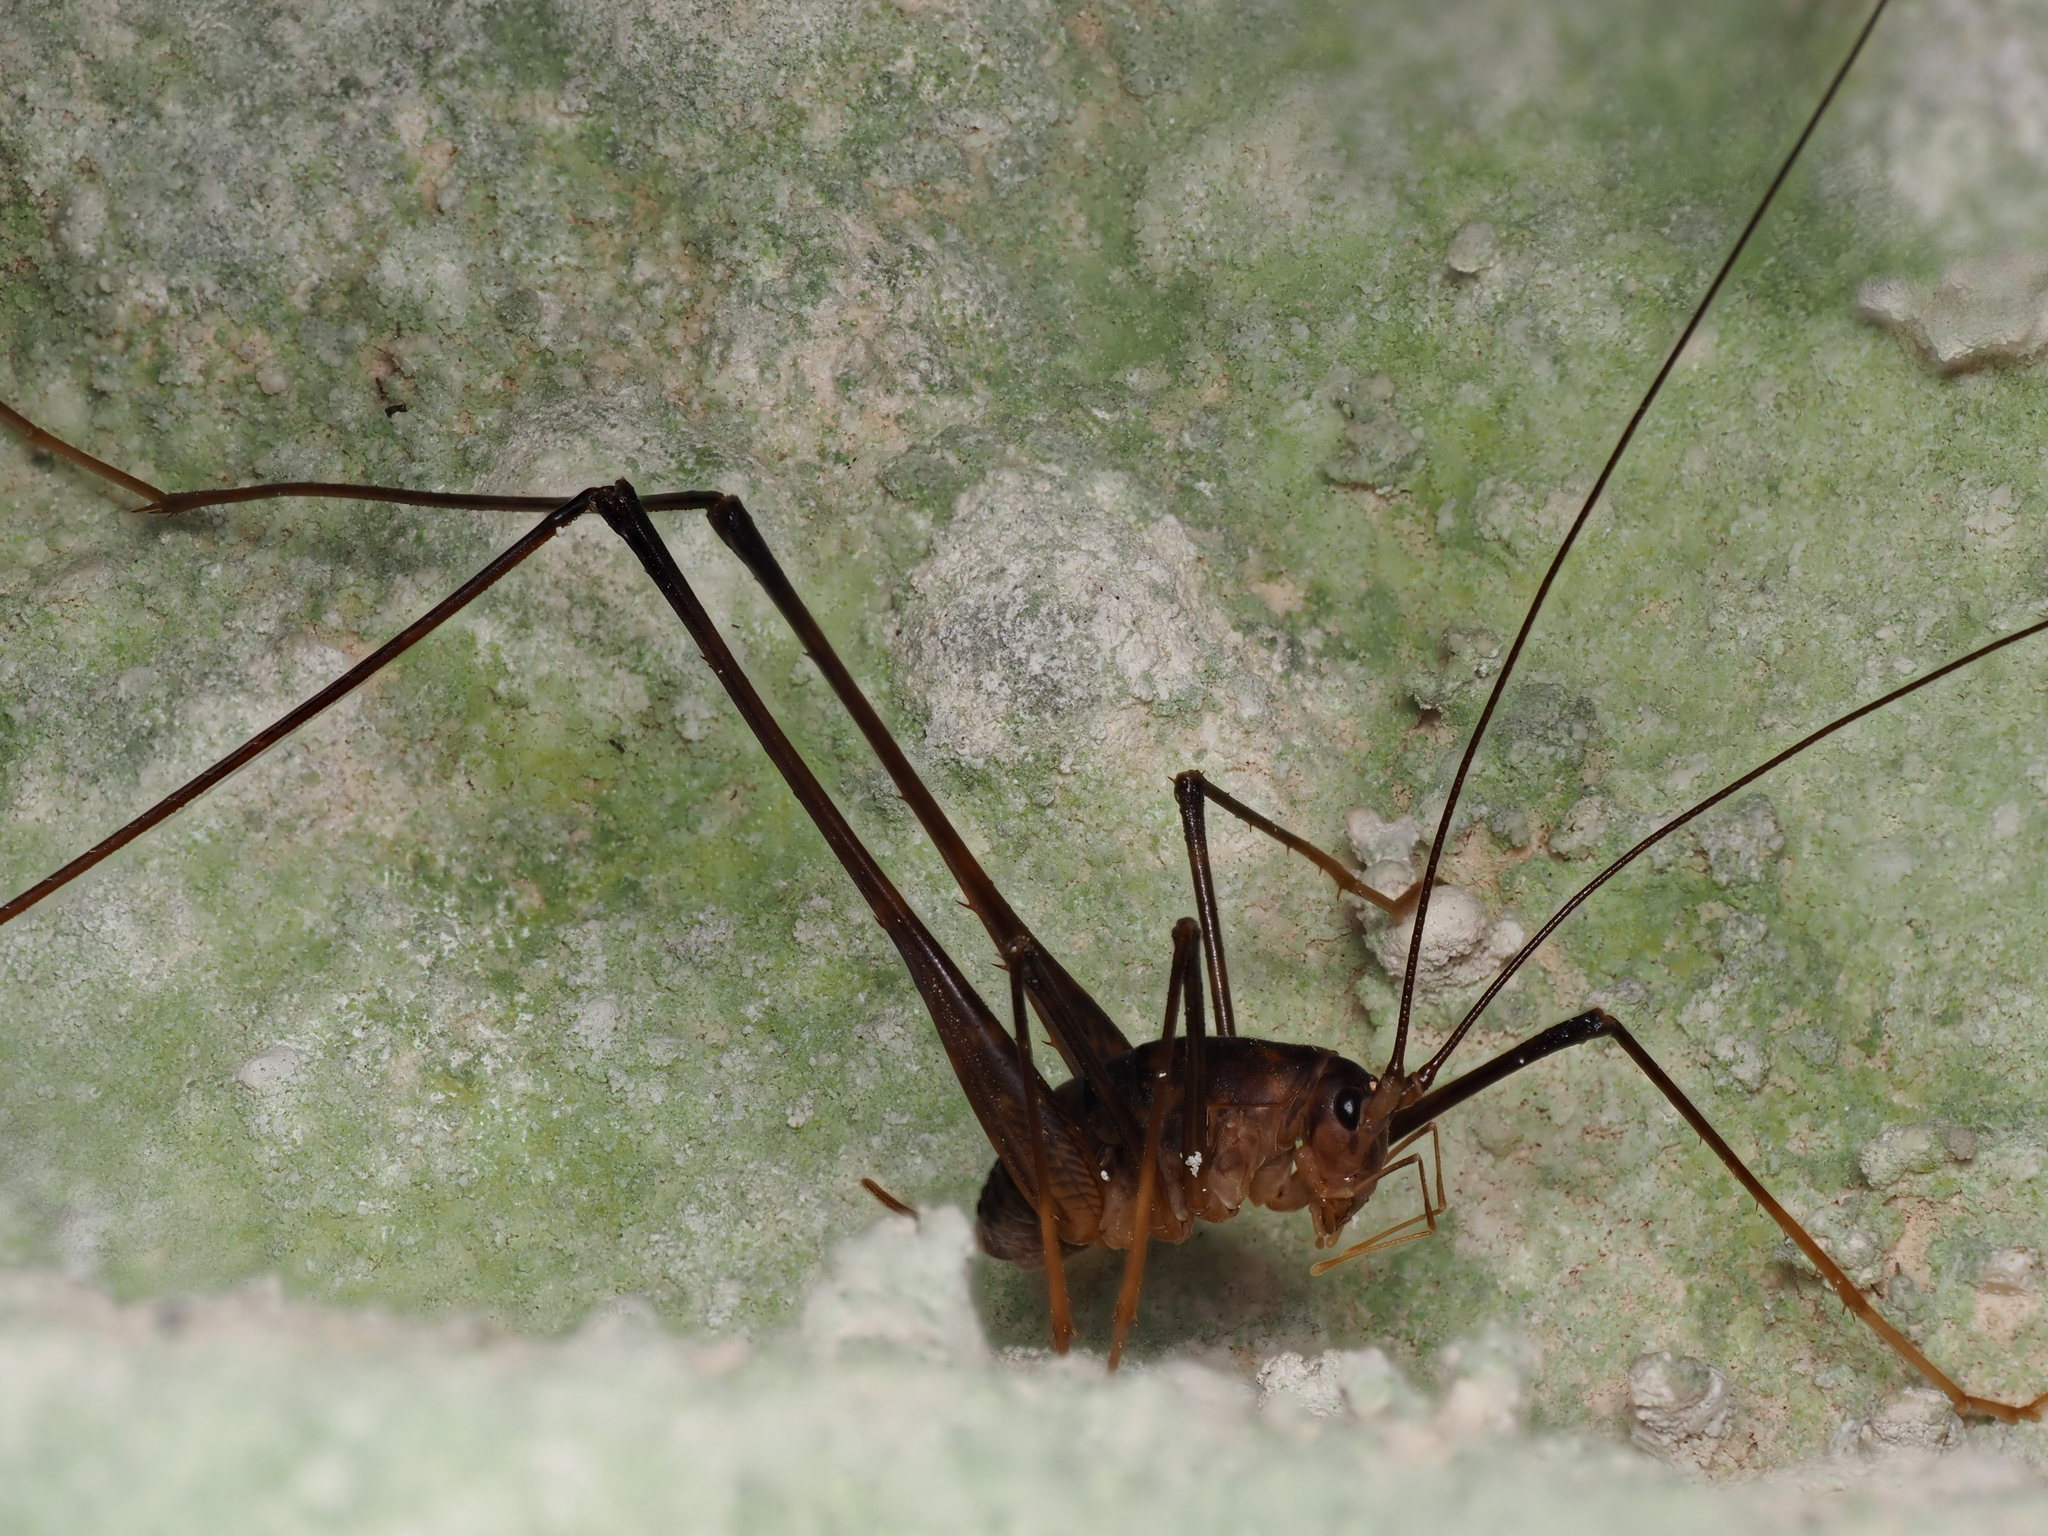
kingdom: Animalia
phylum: Arthropoda
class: Insecta
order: Orthoptera
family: Rhaphidophoridae
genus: Pachyrhamma
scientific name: Pachyrhamma waitomoensis
